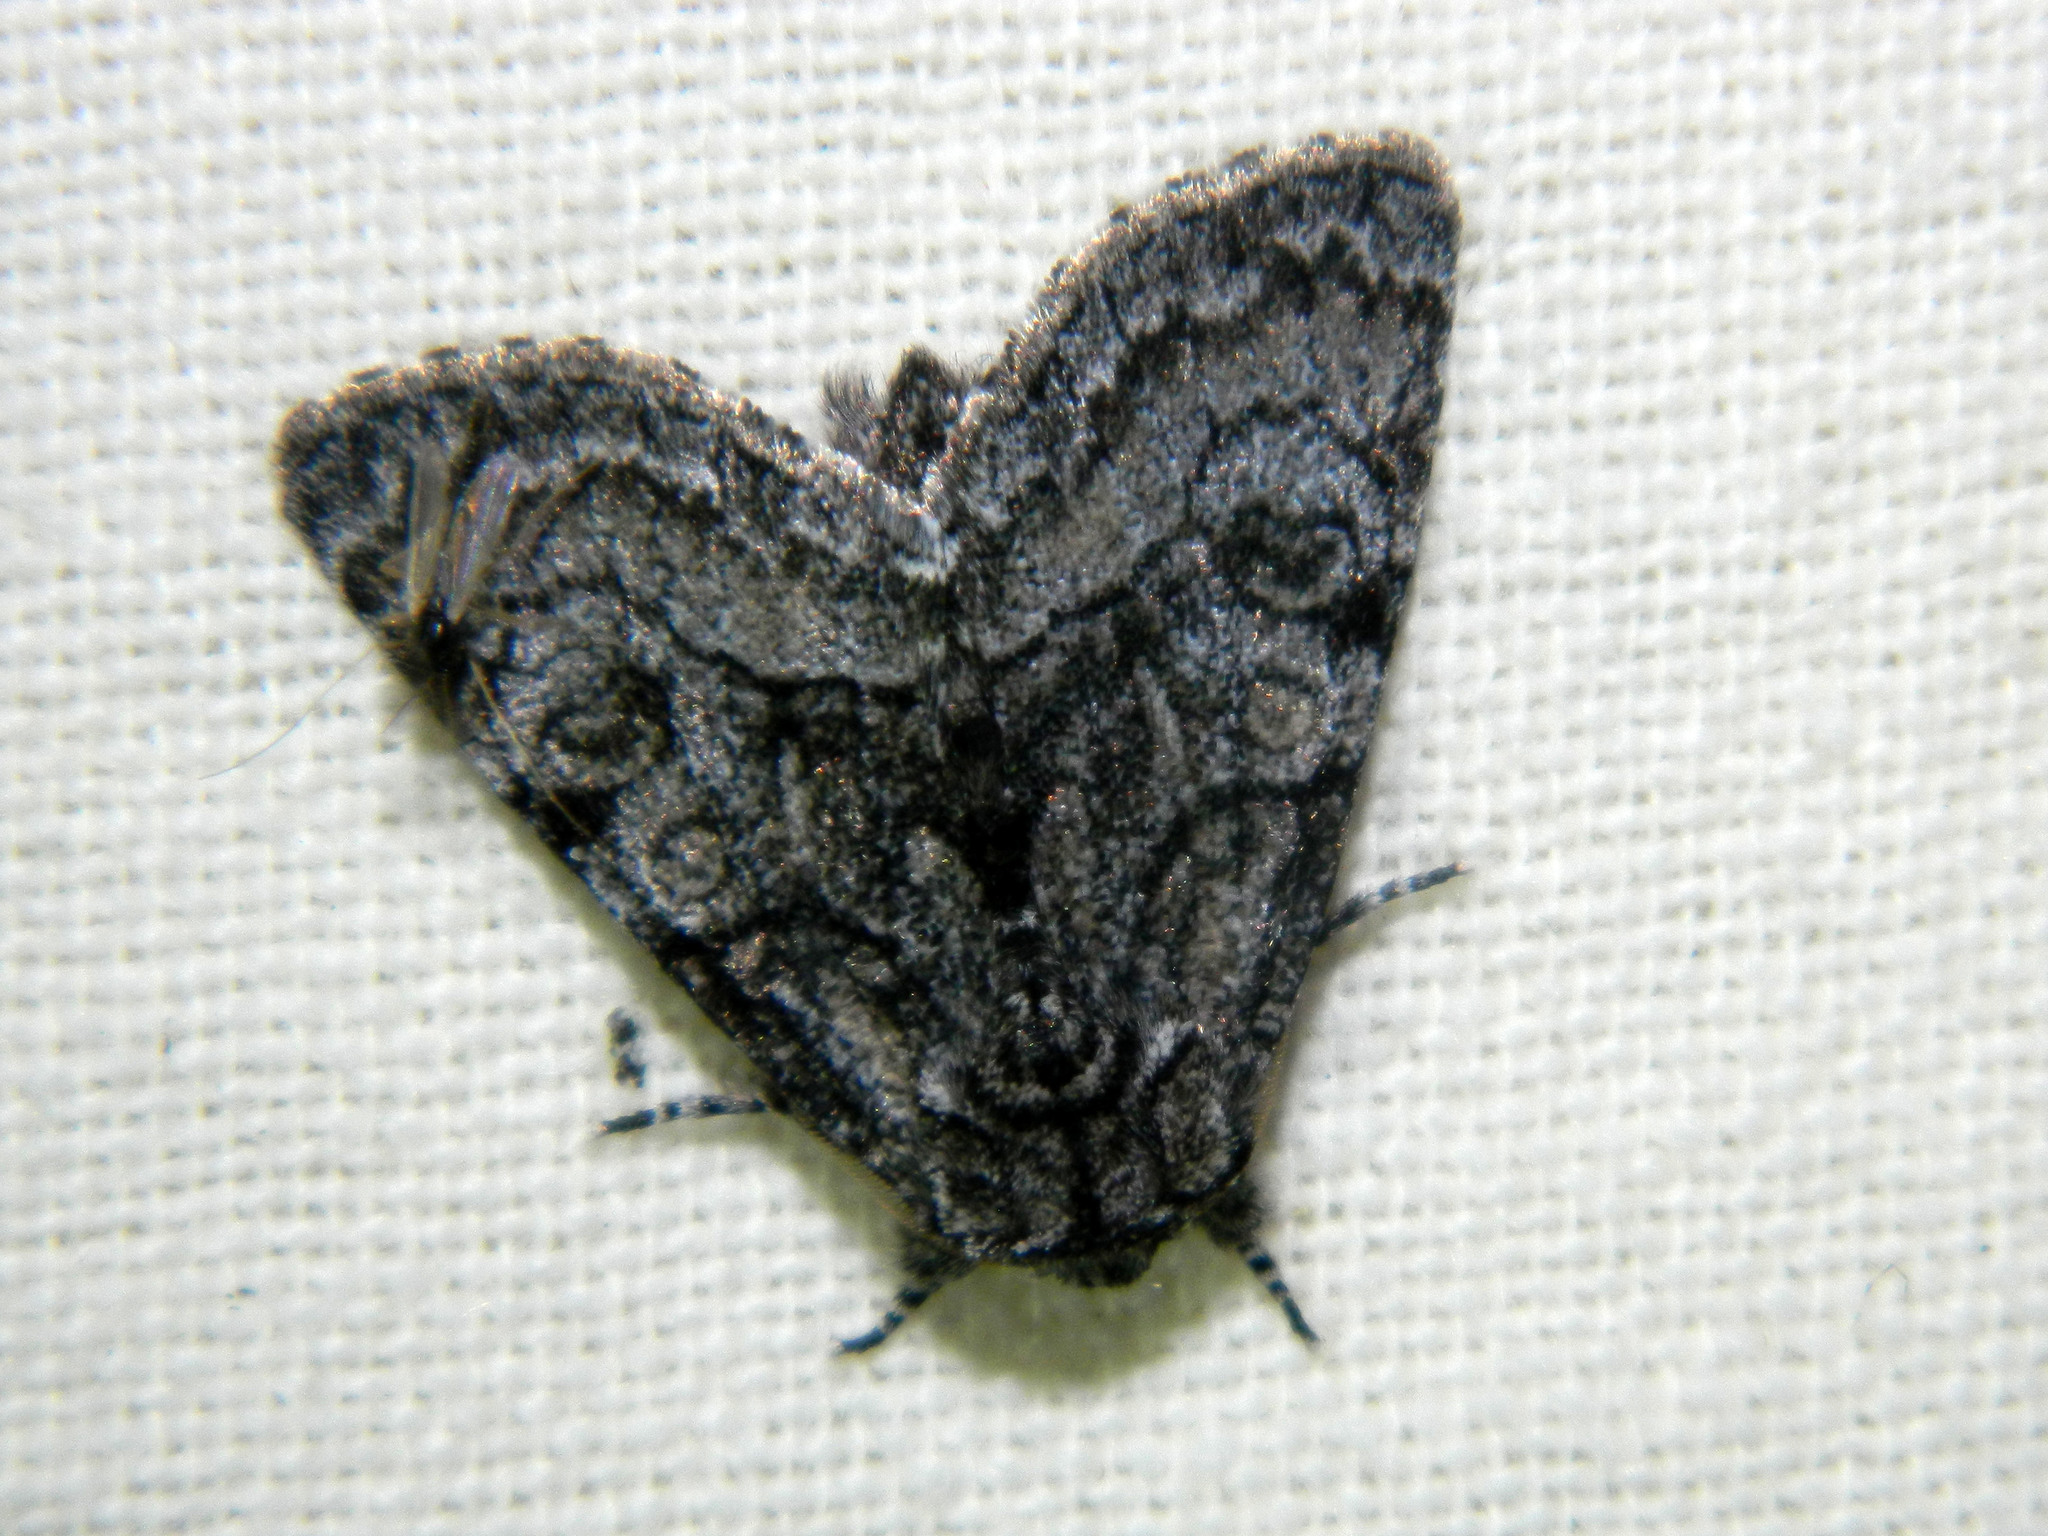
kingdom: Animalia
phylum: Arthropoda
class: Insecta
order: Lepidoptera
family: Noctuidae
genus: Raphia
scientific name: Raphia frater
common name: Brother
